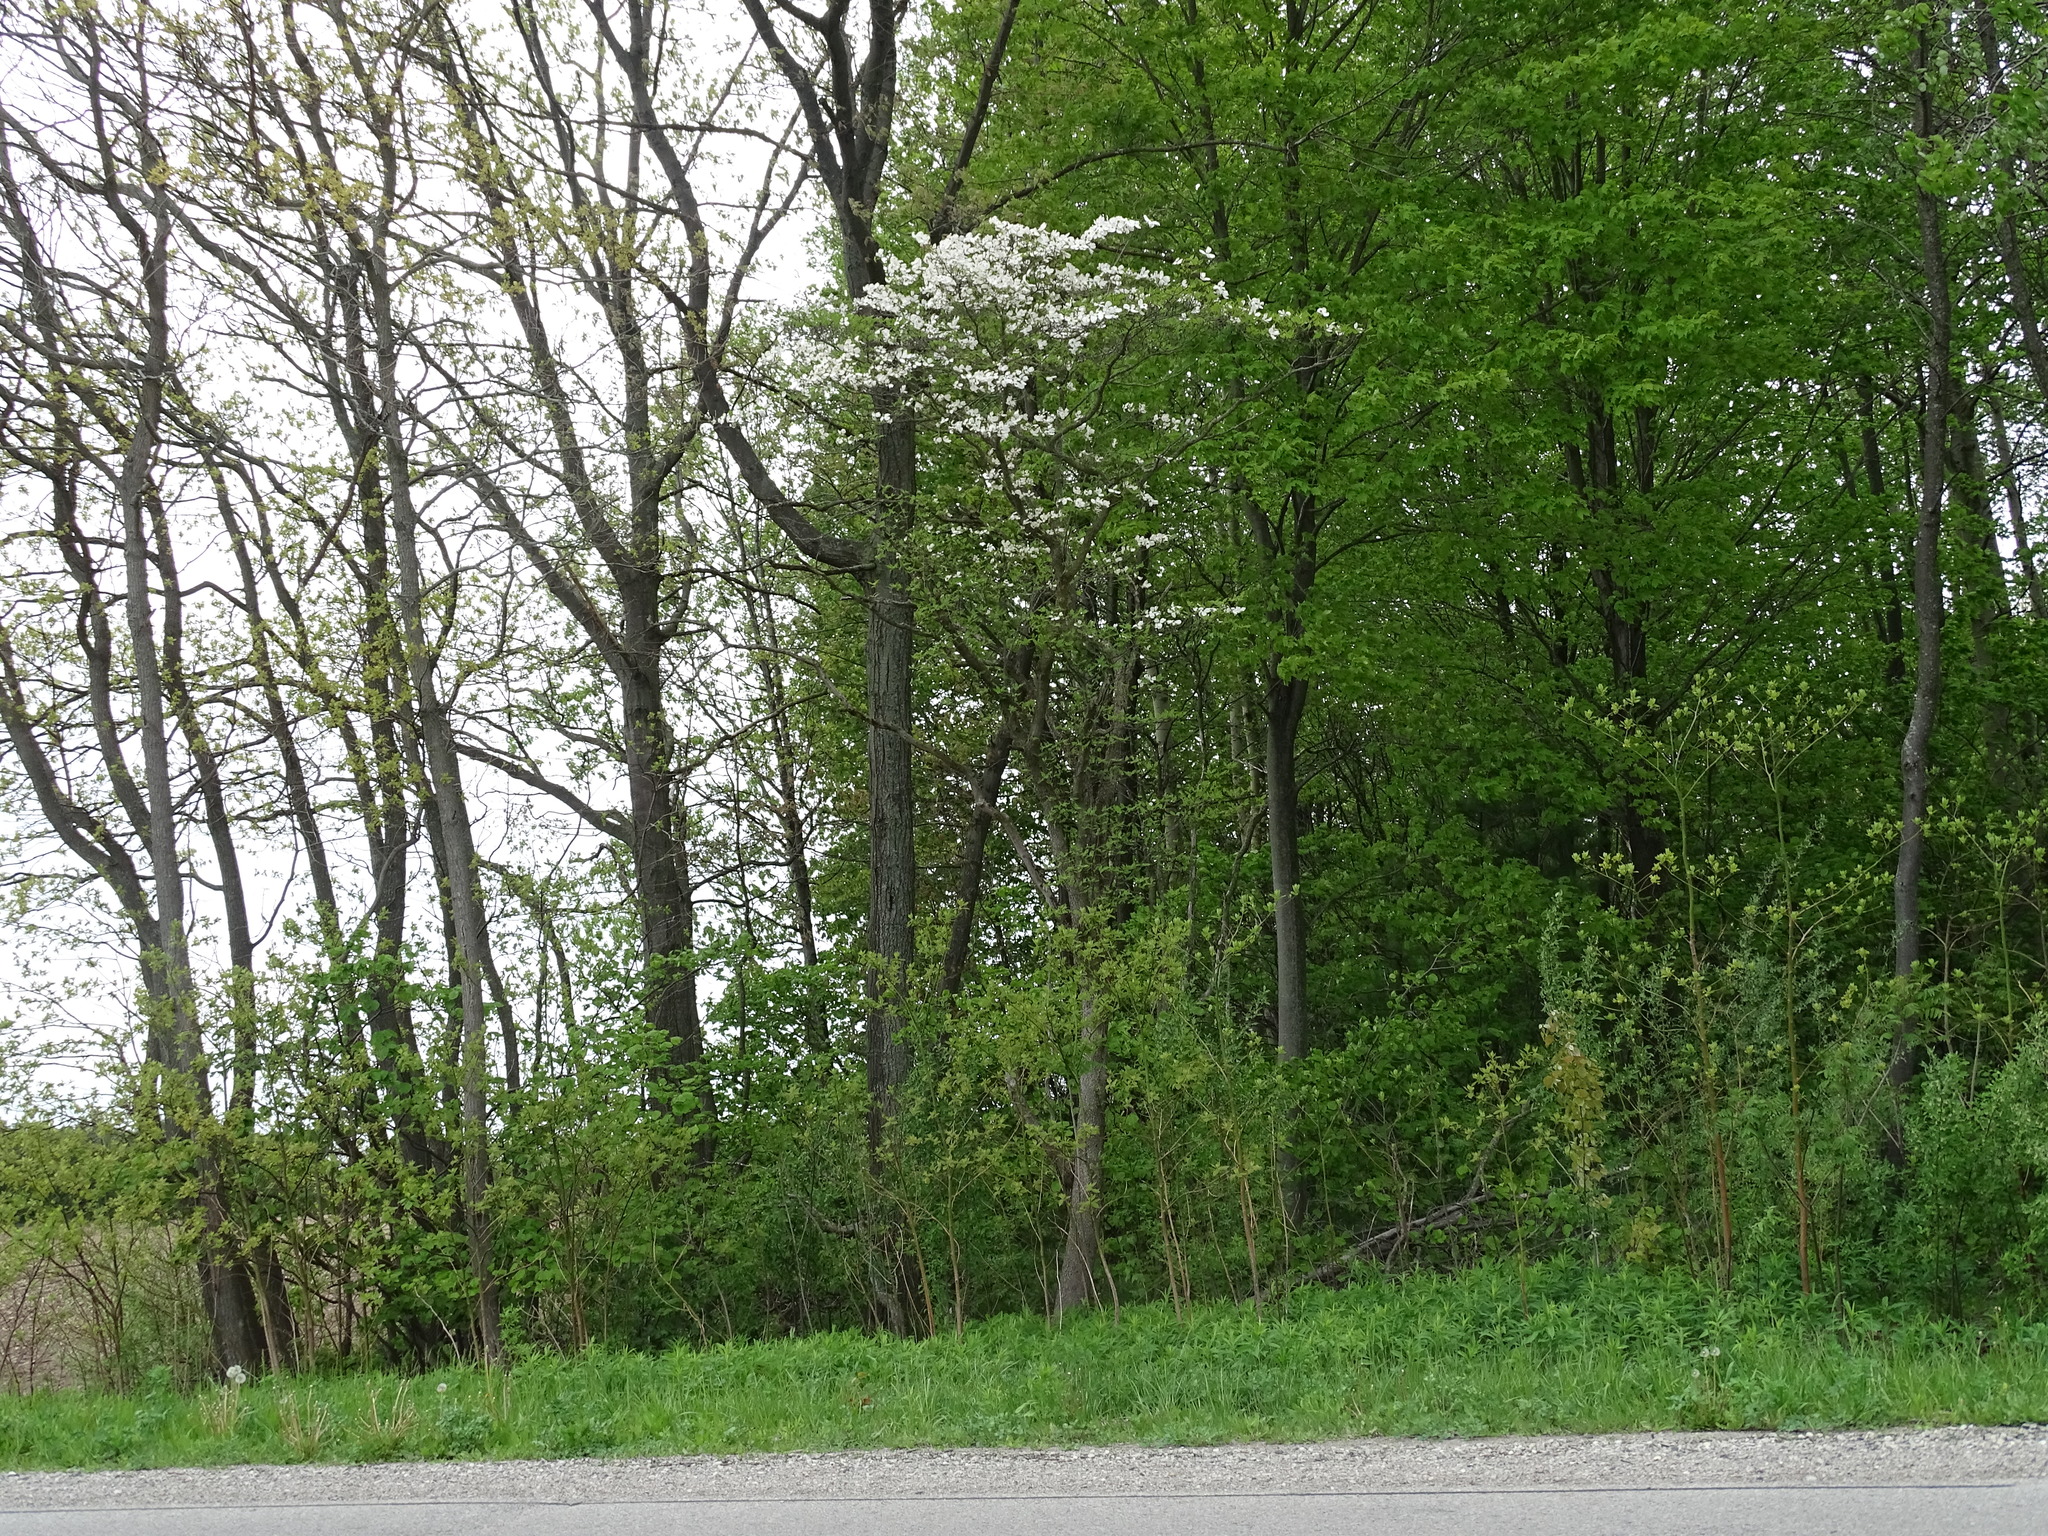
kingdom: Plantae
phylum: Tracheophyta
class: Magnoliopsida
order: Cornales
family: Cornaceae
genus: Cornus
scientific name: Cornus florida
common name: Flowering dogwood
